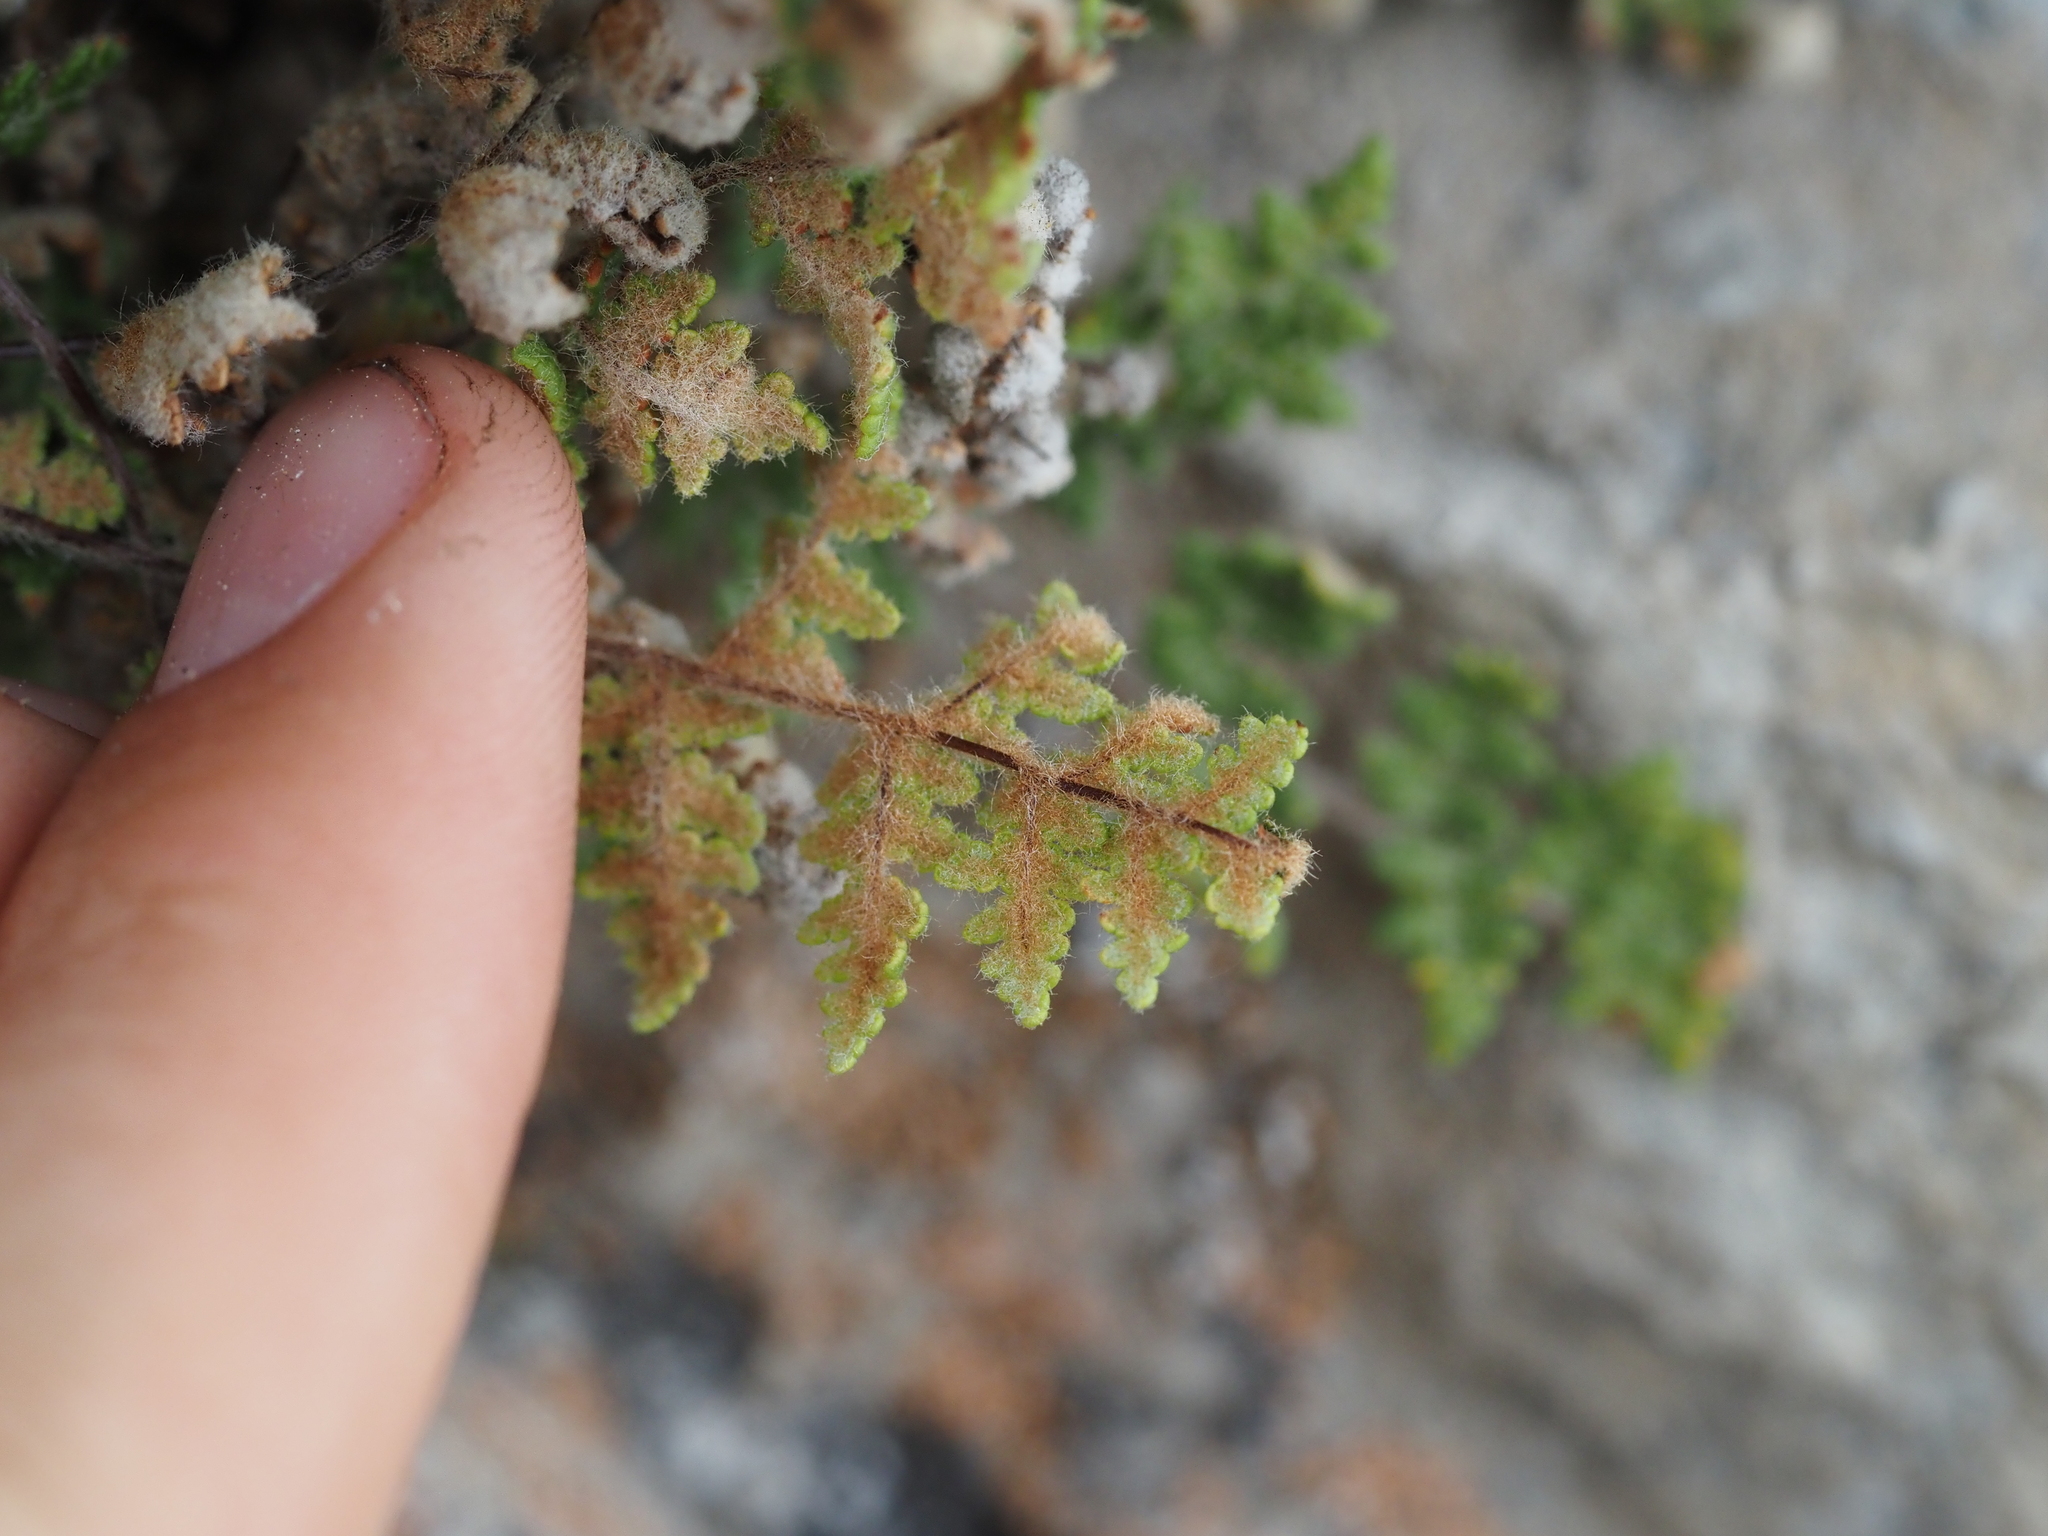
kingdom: Plantae
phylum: Tracheophyta
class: Polypodiopsida
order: Polypodiales
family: Pteridaceae
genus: Myriopteris
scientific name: Myriopteris gracilis
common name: Fee's lip fern
